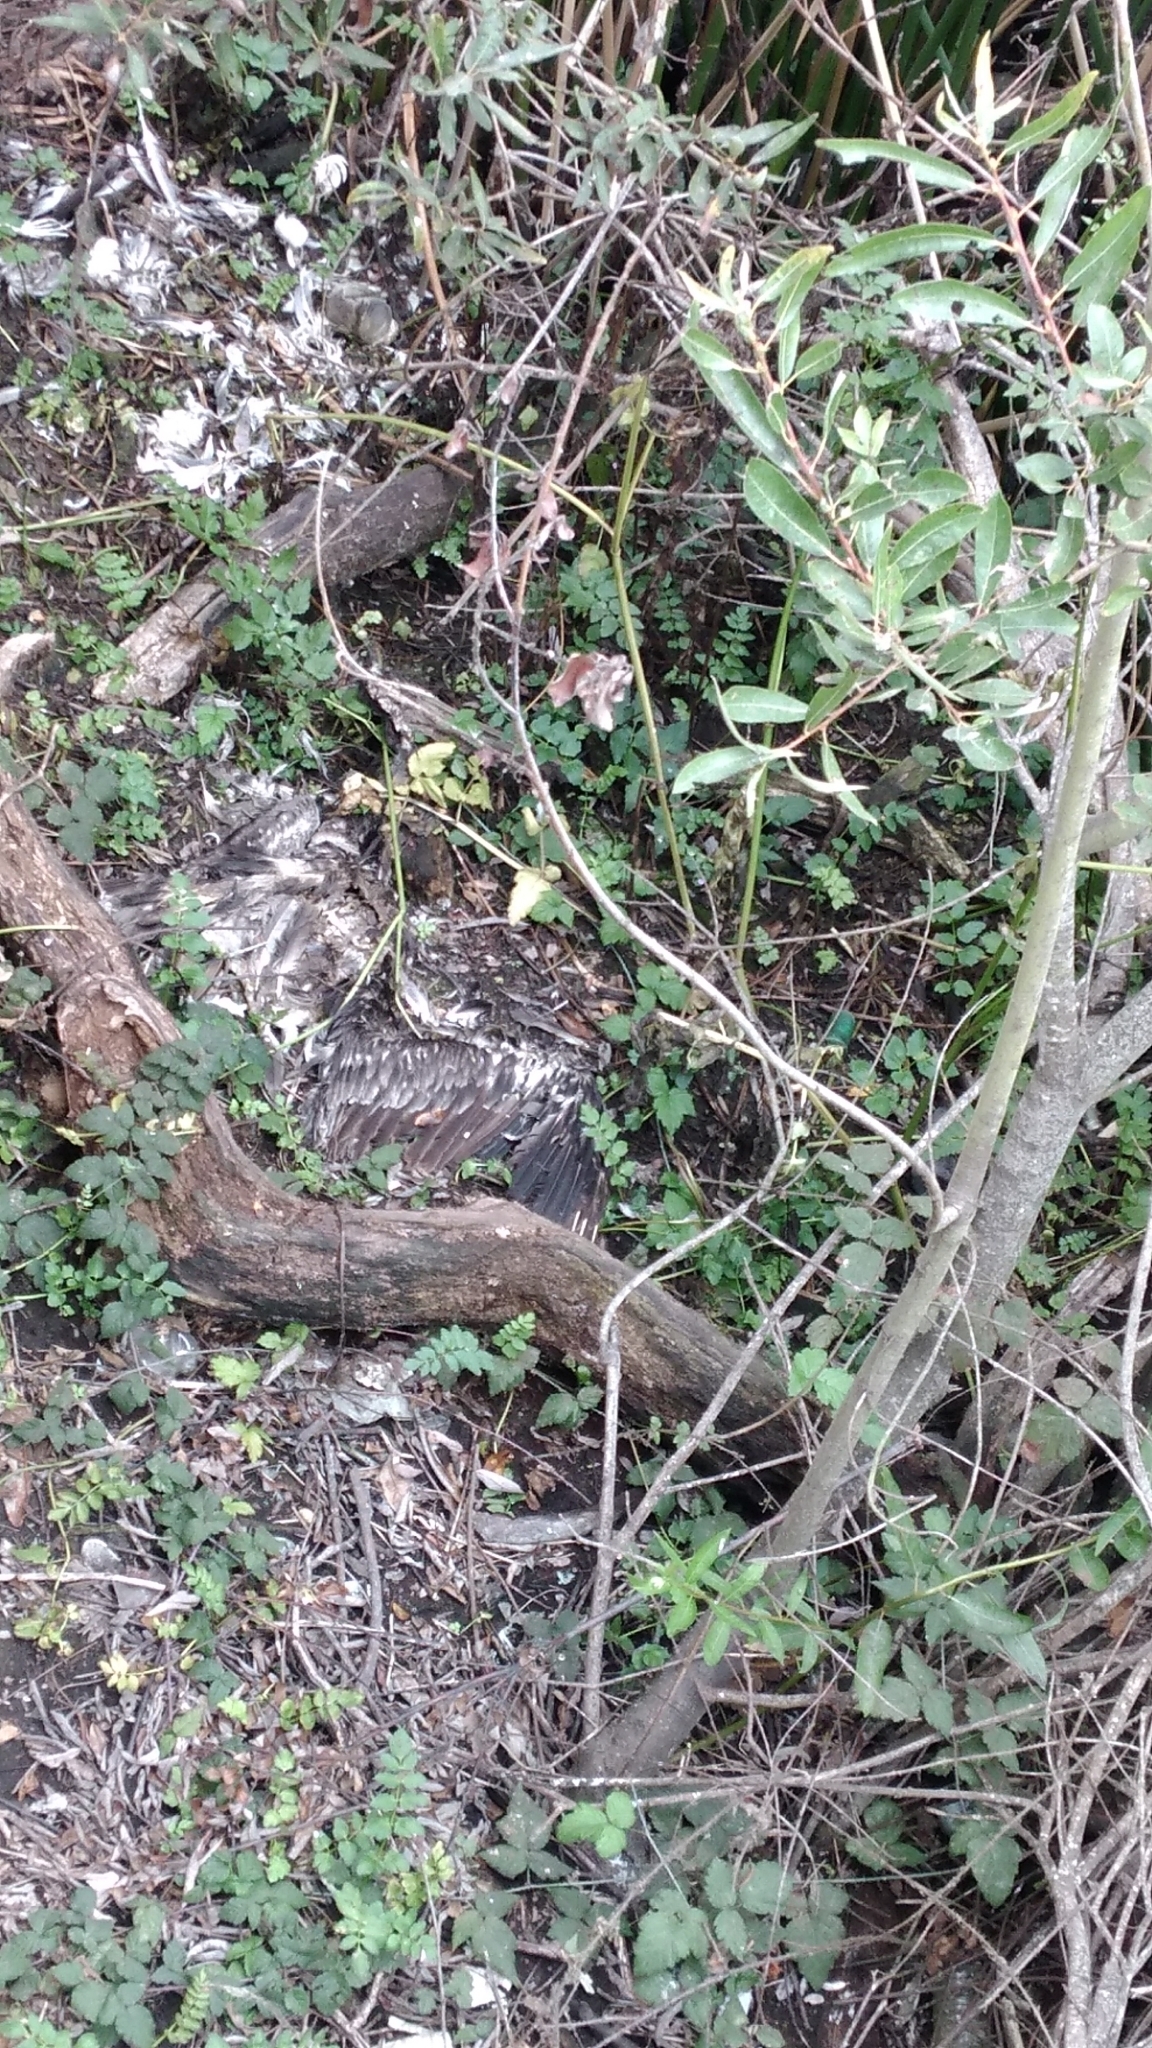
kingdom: Animalia
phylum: Chordata
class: Aves
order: Pelecaniformes
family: Pelecanidae
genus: Pelecanus
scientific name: Pelecanus occidentalis
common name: Brown pelican
